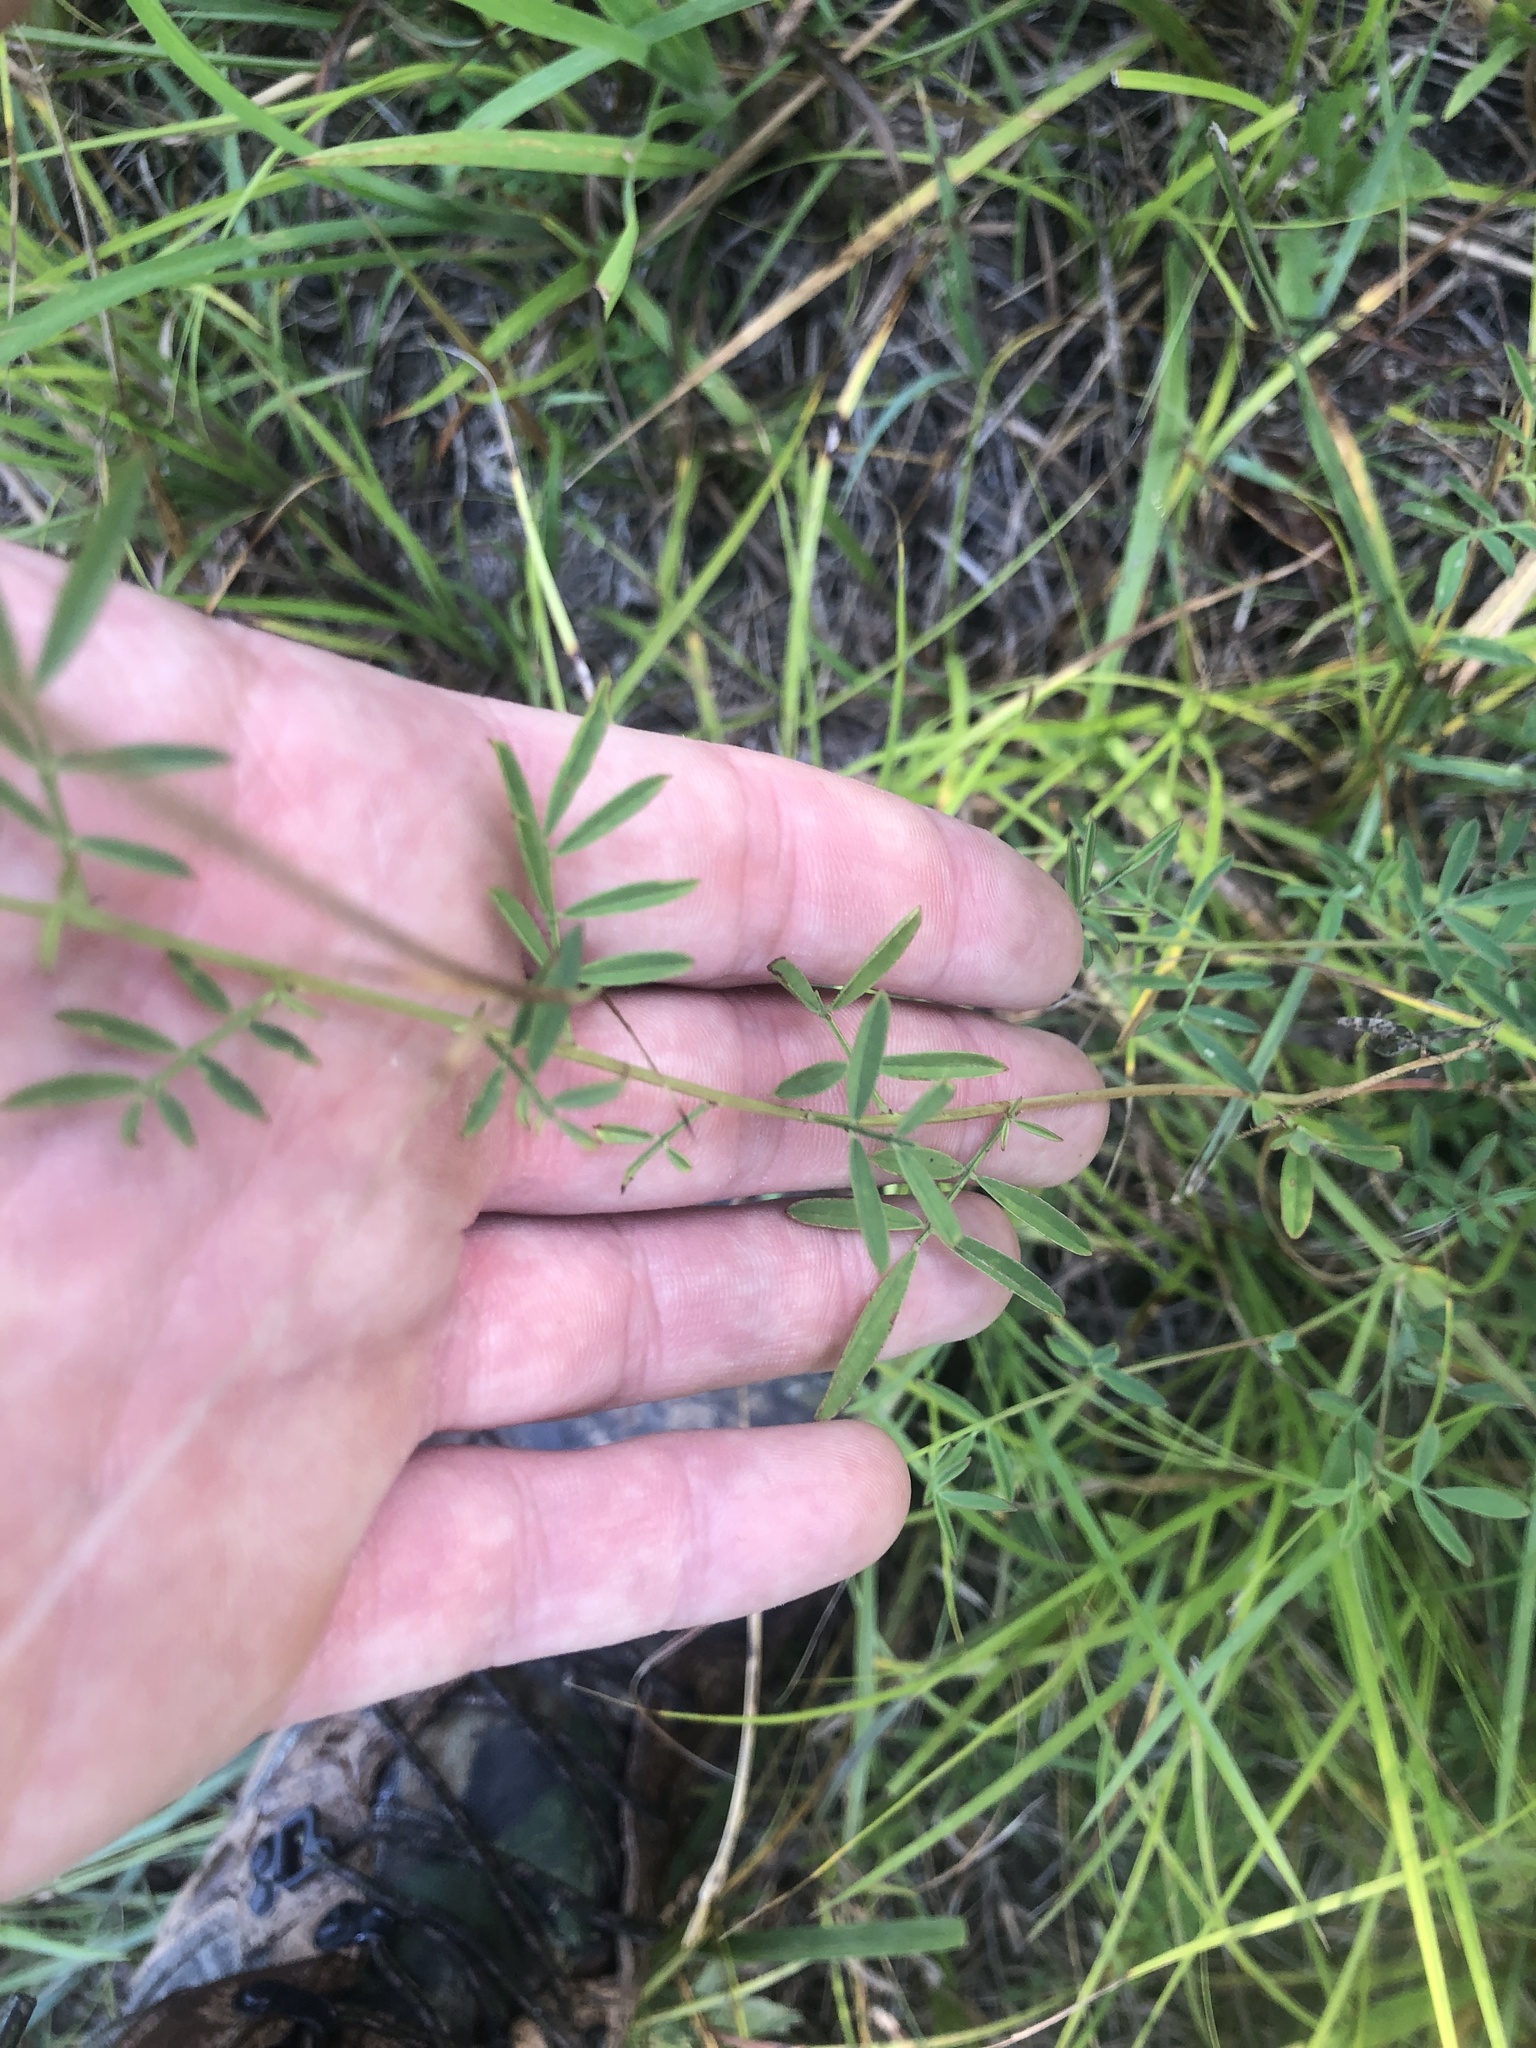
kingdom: Plantae
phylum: Tracheophyta
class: Magnoliopsida
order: Fabales
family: Fabaceae
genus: Dalea
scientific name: Dalea candida
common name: White prairie-clover
